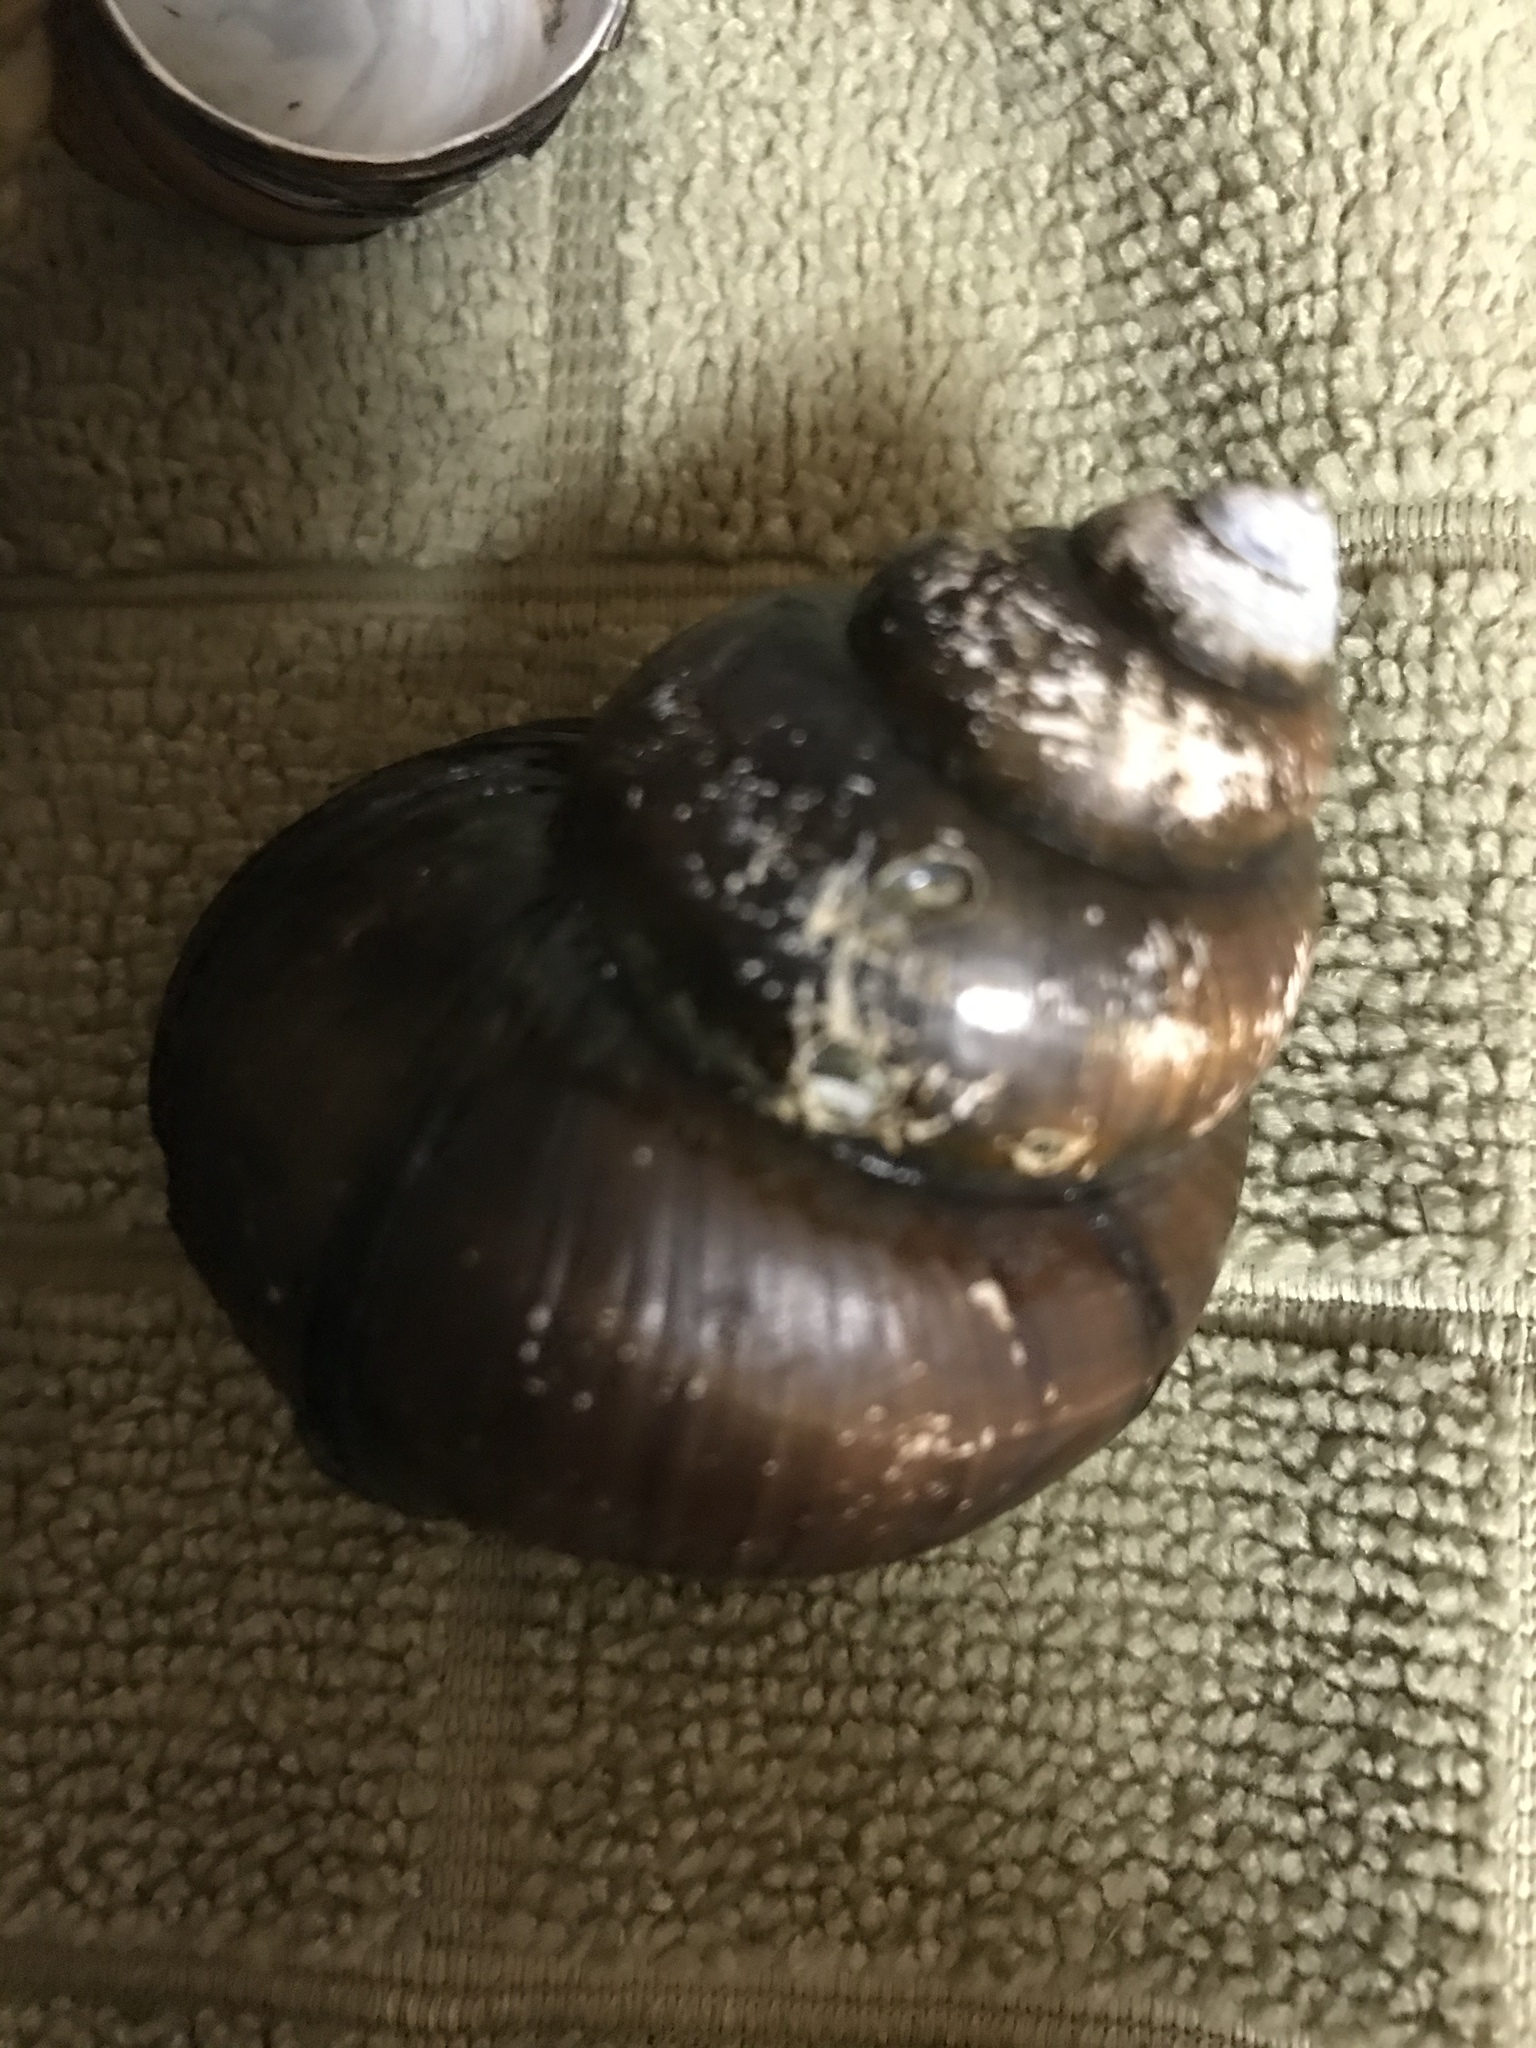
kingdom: Animalia
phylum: Mollusca
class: Gastropoda
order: Architaenioglossa
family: Viviparidae
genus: Cipangopaludina
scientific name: Cipangopaludina chinensis
